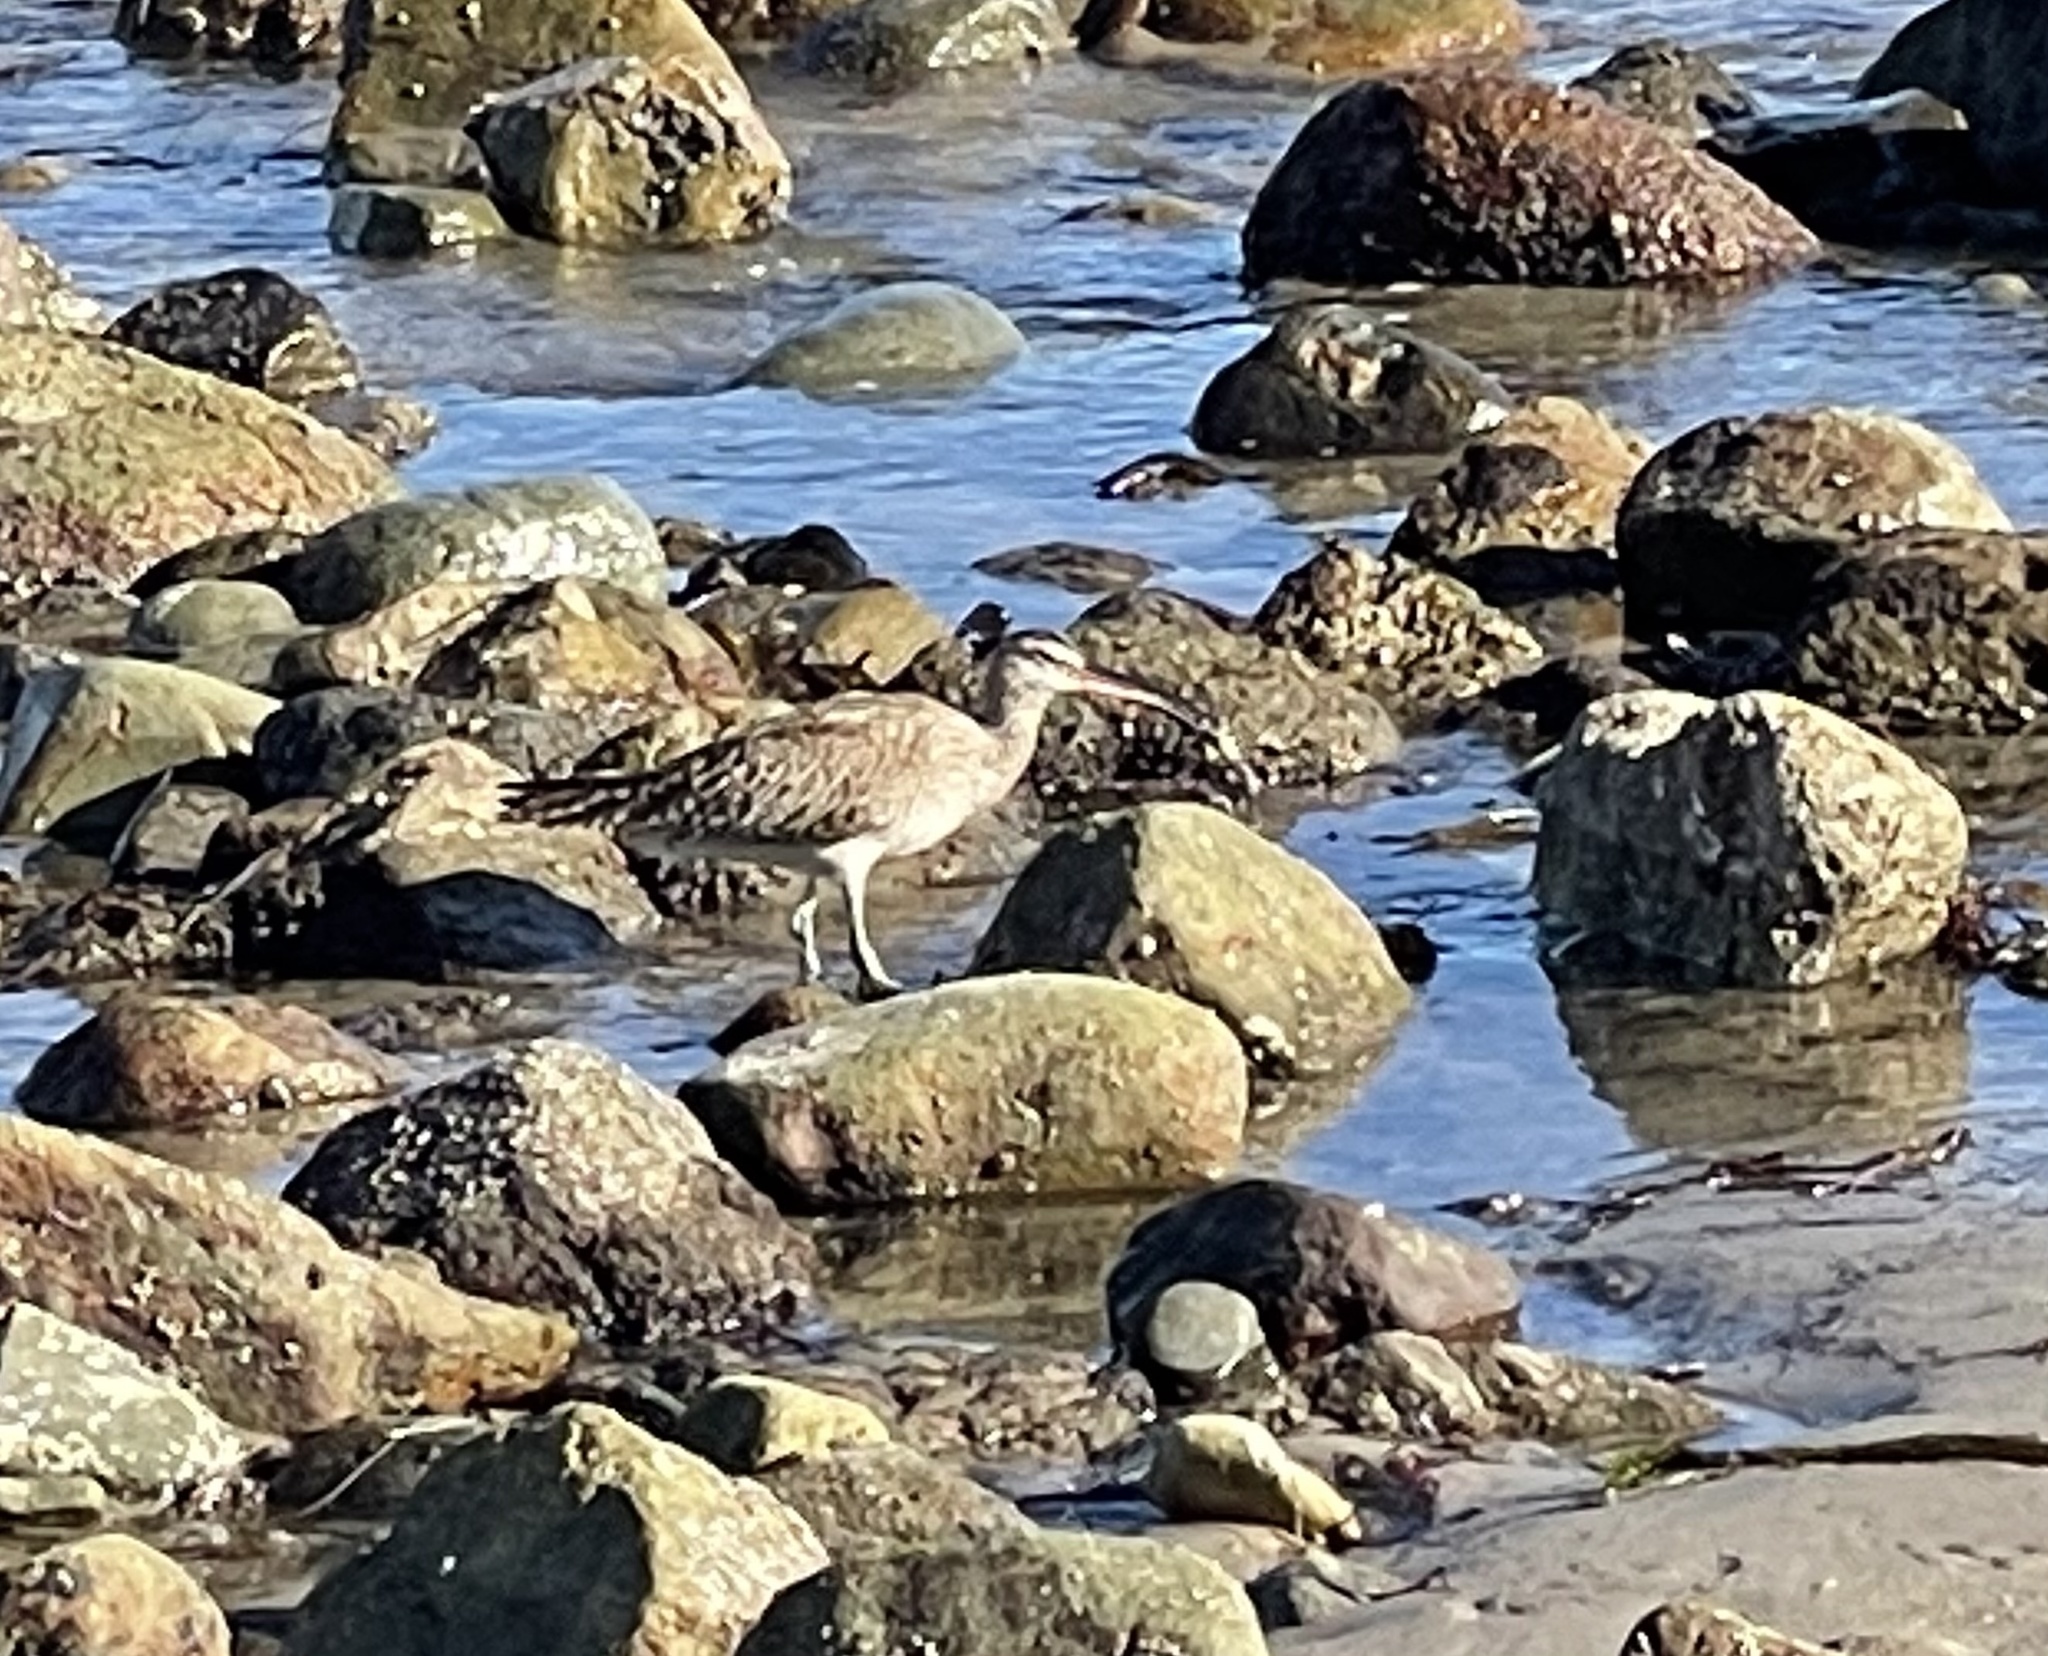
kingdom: Animalia
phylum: Chordata
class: Aves
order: Charadriiformes
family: Scolopacidae
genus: Numenius
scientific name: Numenius phaeopus
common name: Whimbrel
